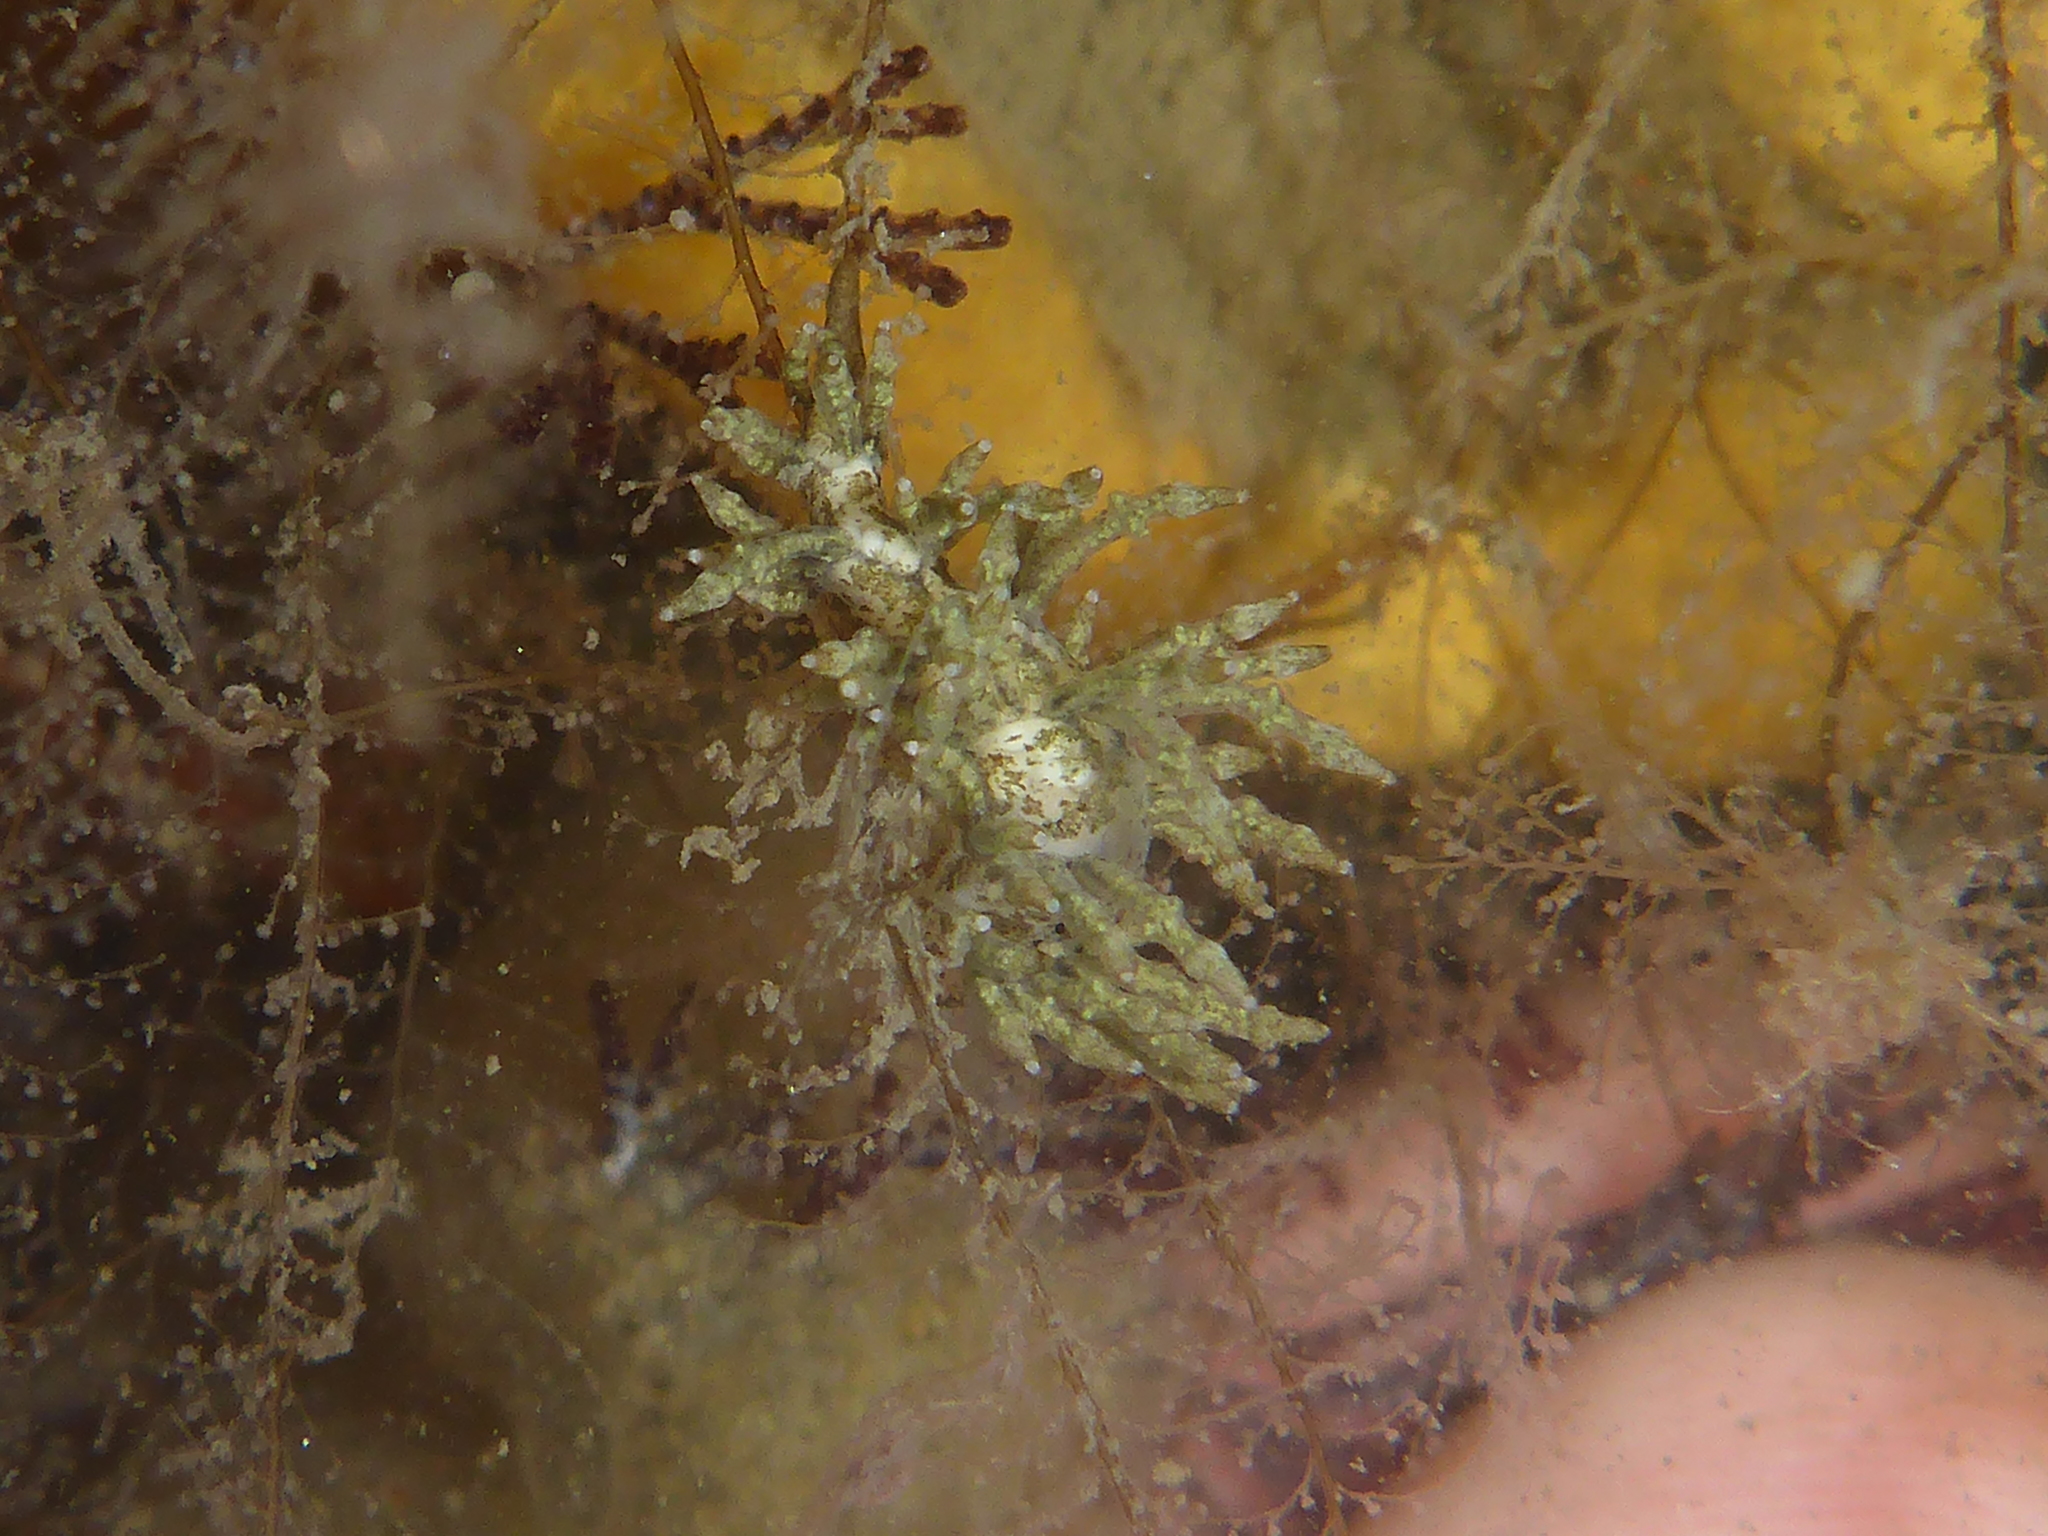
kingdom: Animalia
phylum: Mollusca
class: Gastropoda
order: Nudibranchia
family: Eubranchidae
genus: Eubranchus
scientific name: Eubranchus rustyus
